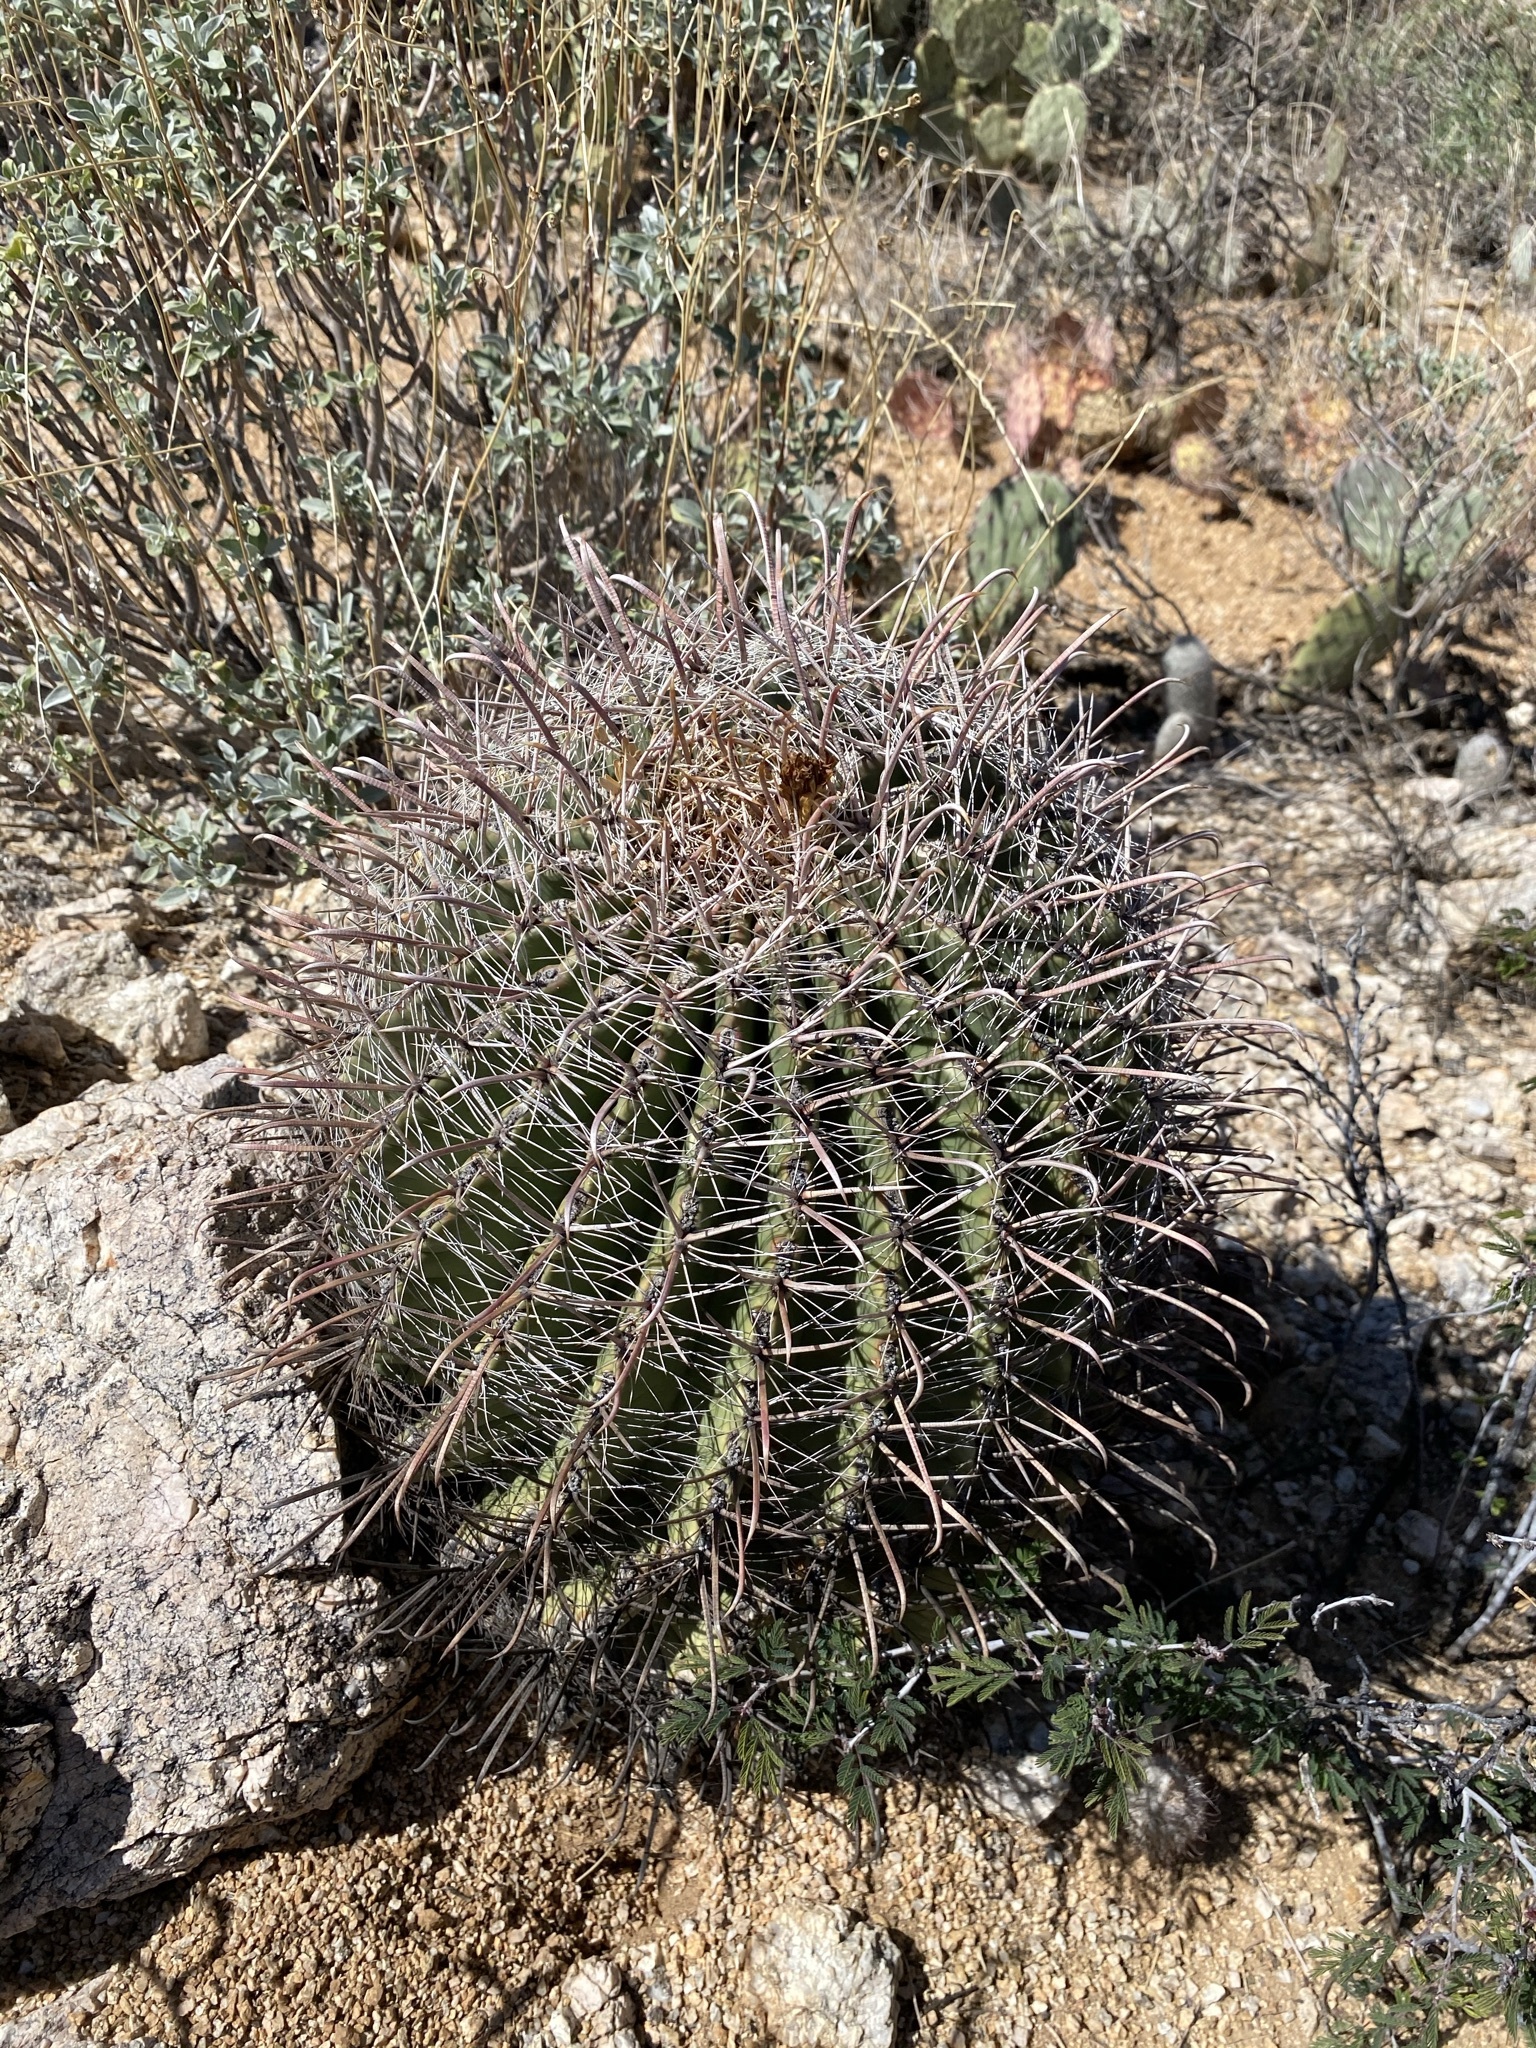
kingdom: Plantae
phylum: Tracheophyta
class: Magnoliopsida
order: Caryophyllales
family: Cactaceae
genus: Ferocactus
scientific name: Ferocactus wislizeni
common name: Candy barrel cactus
